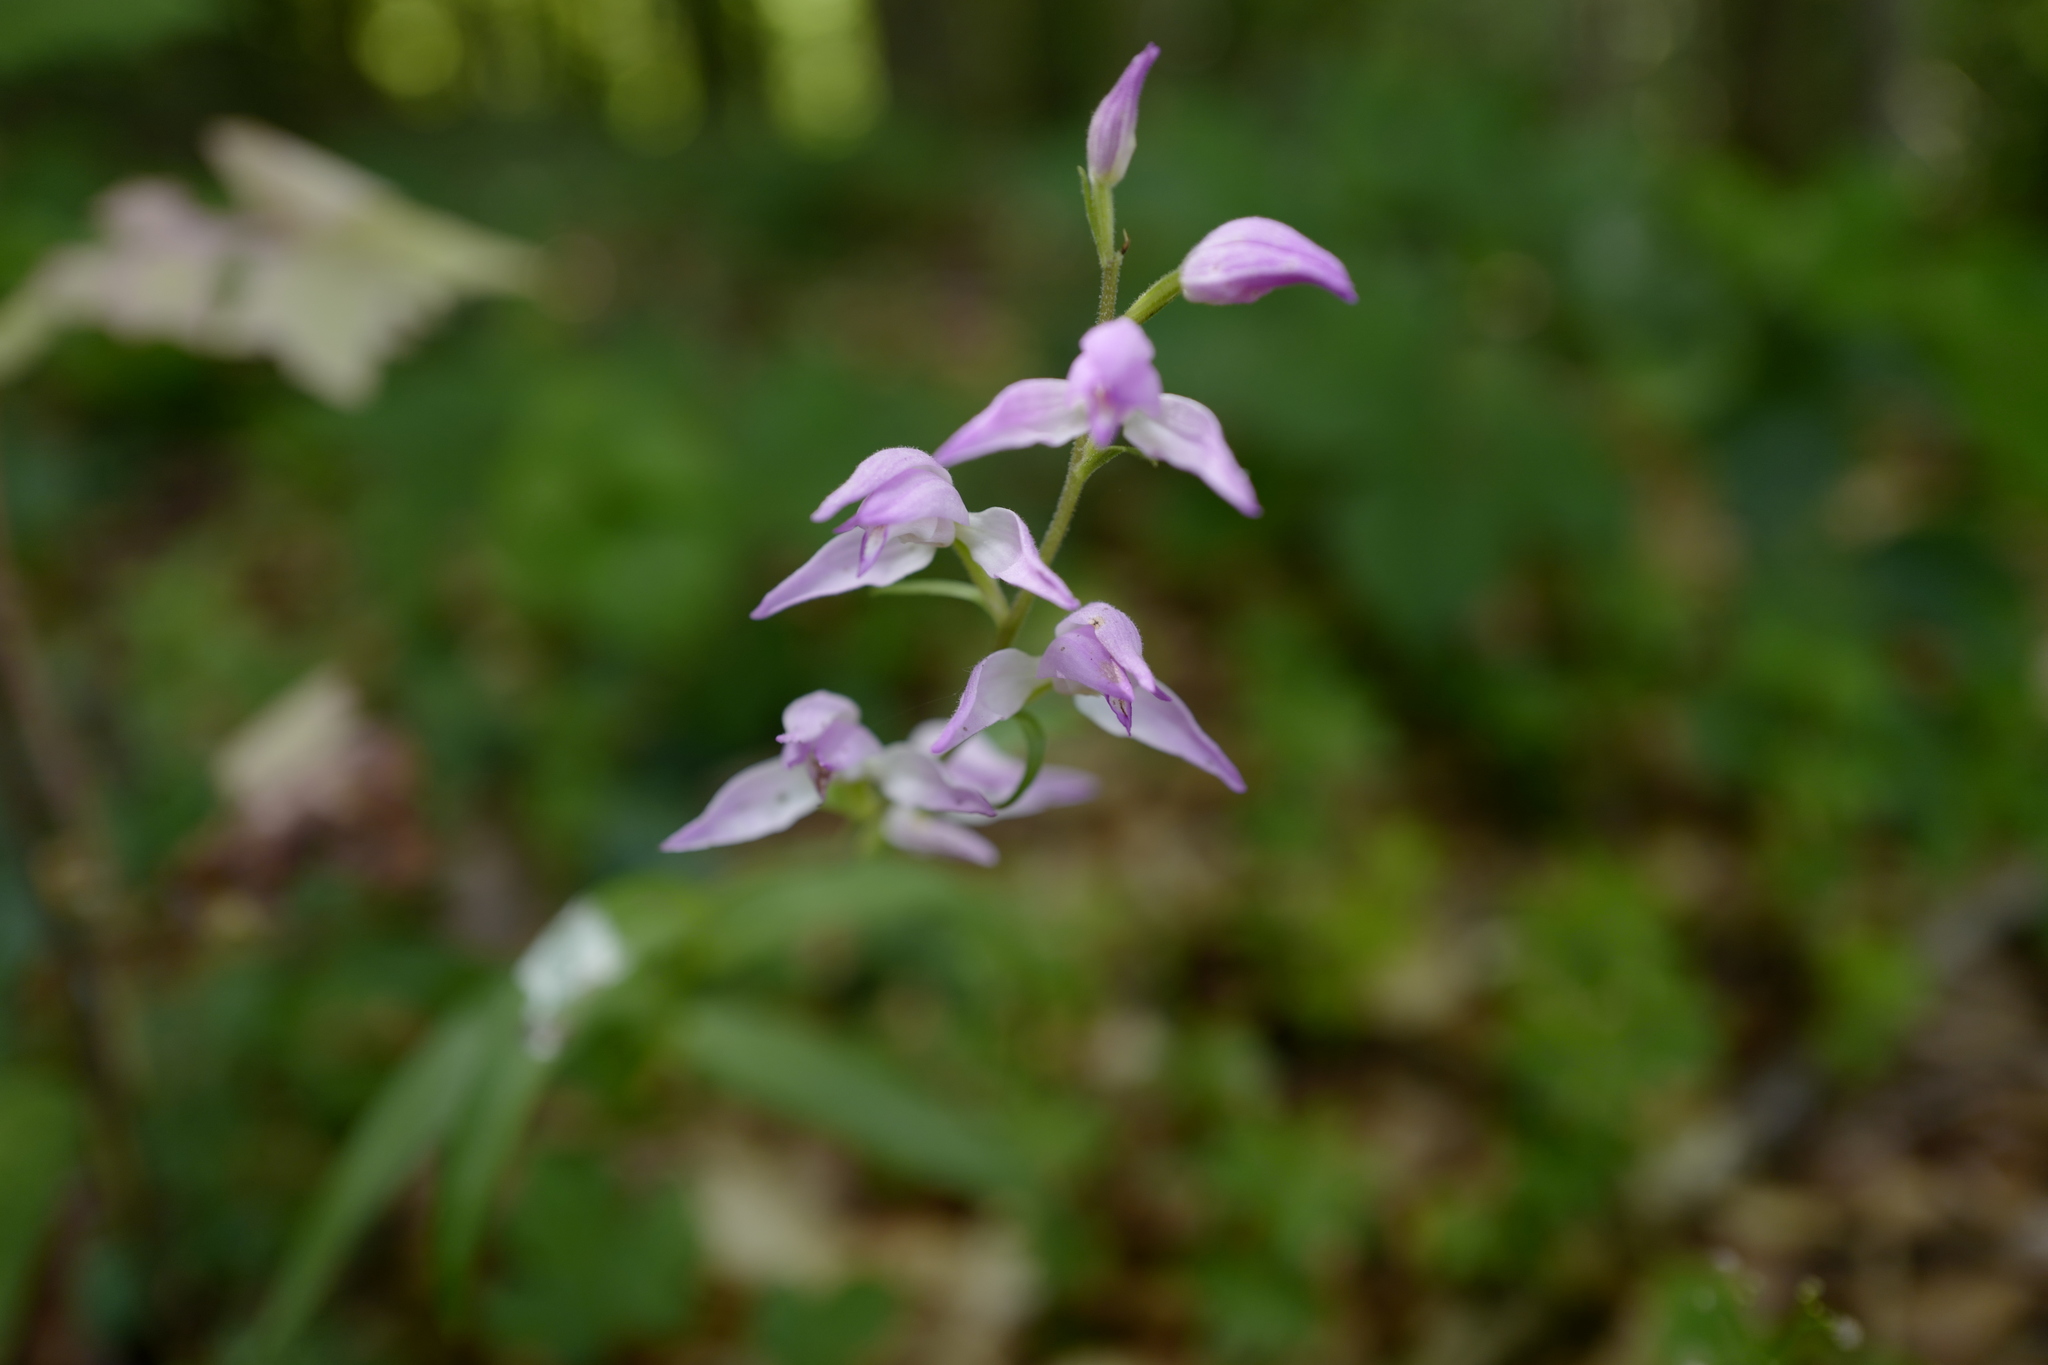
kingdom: Plantae
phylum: Tracheophyta
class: Liliopsida
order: Asparagales
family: Orchidaceae
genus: Cephalanthera
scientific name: Cephalanthera rubra
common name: Red helleborine
